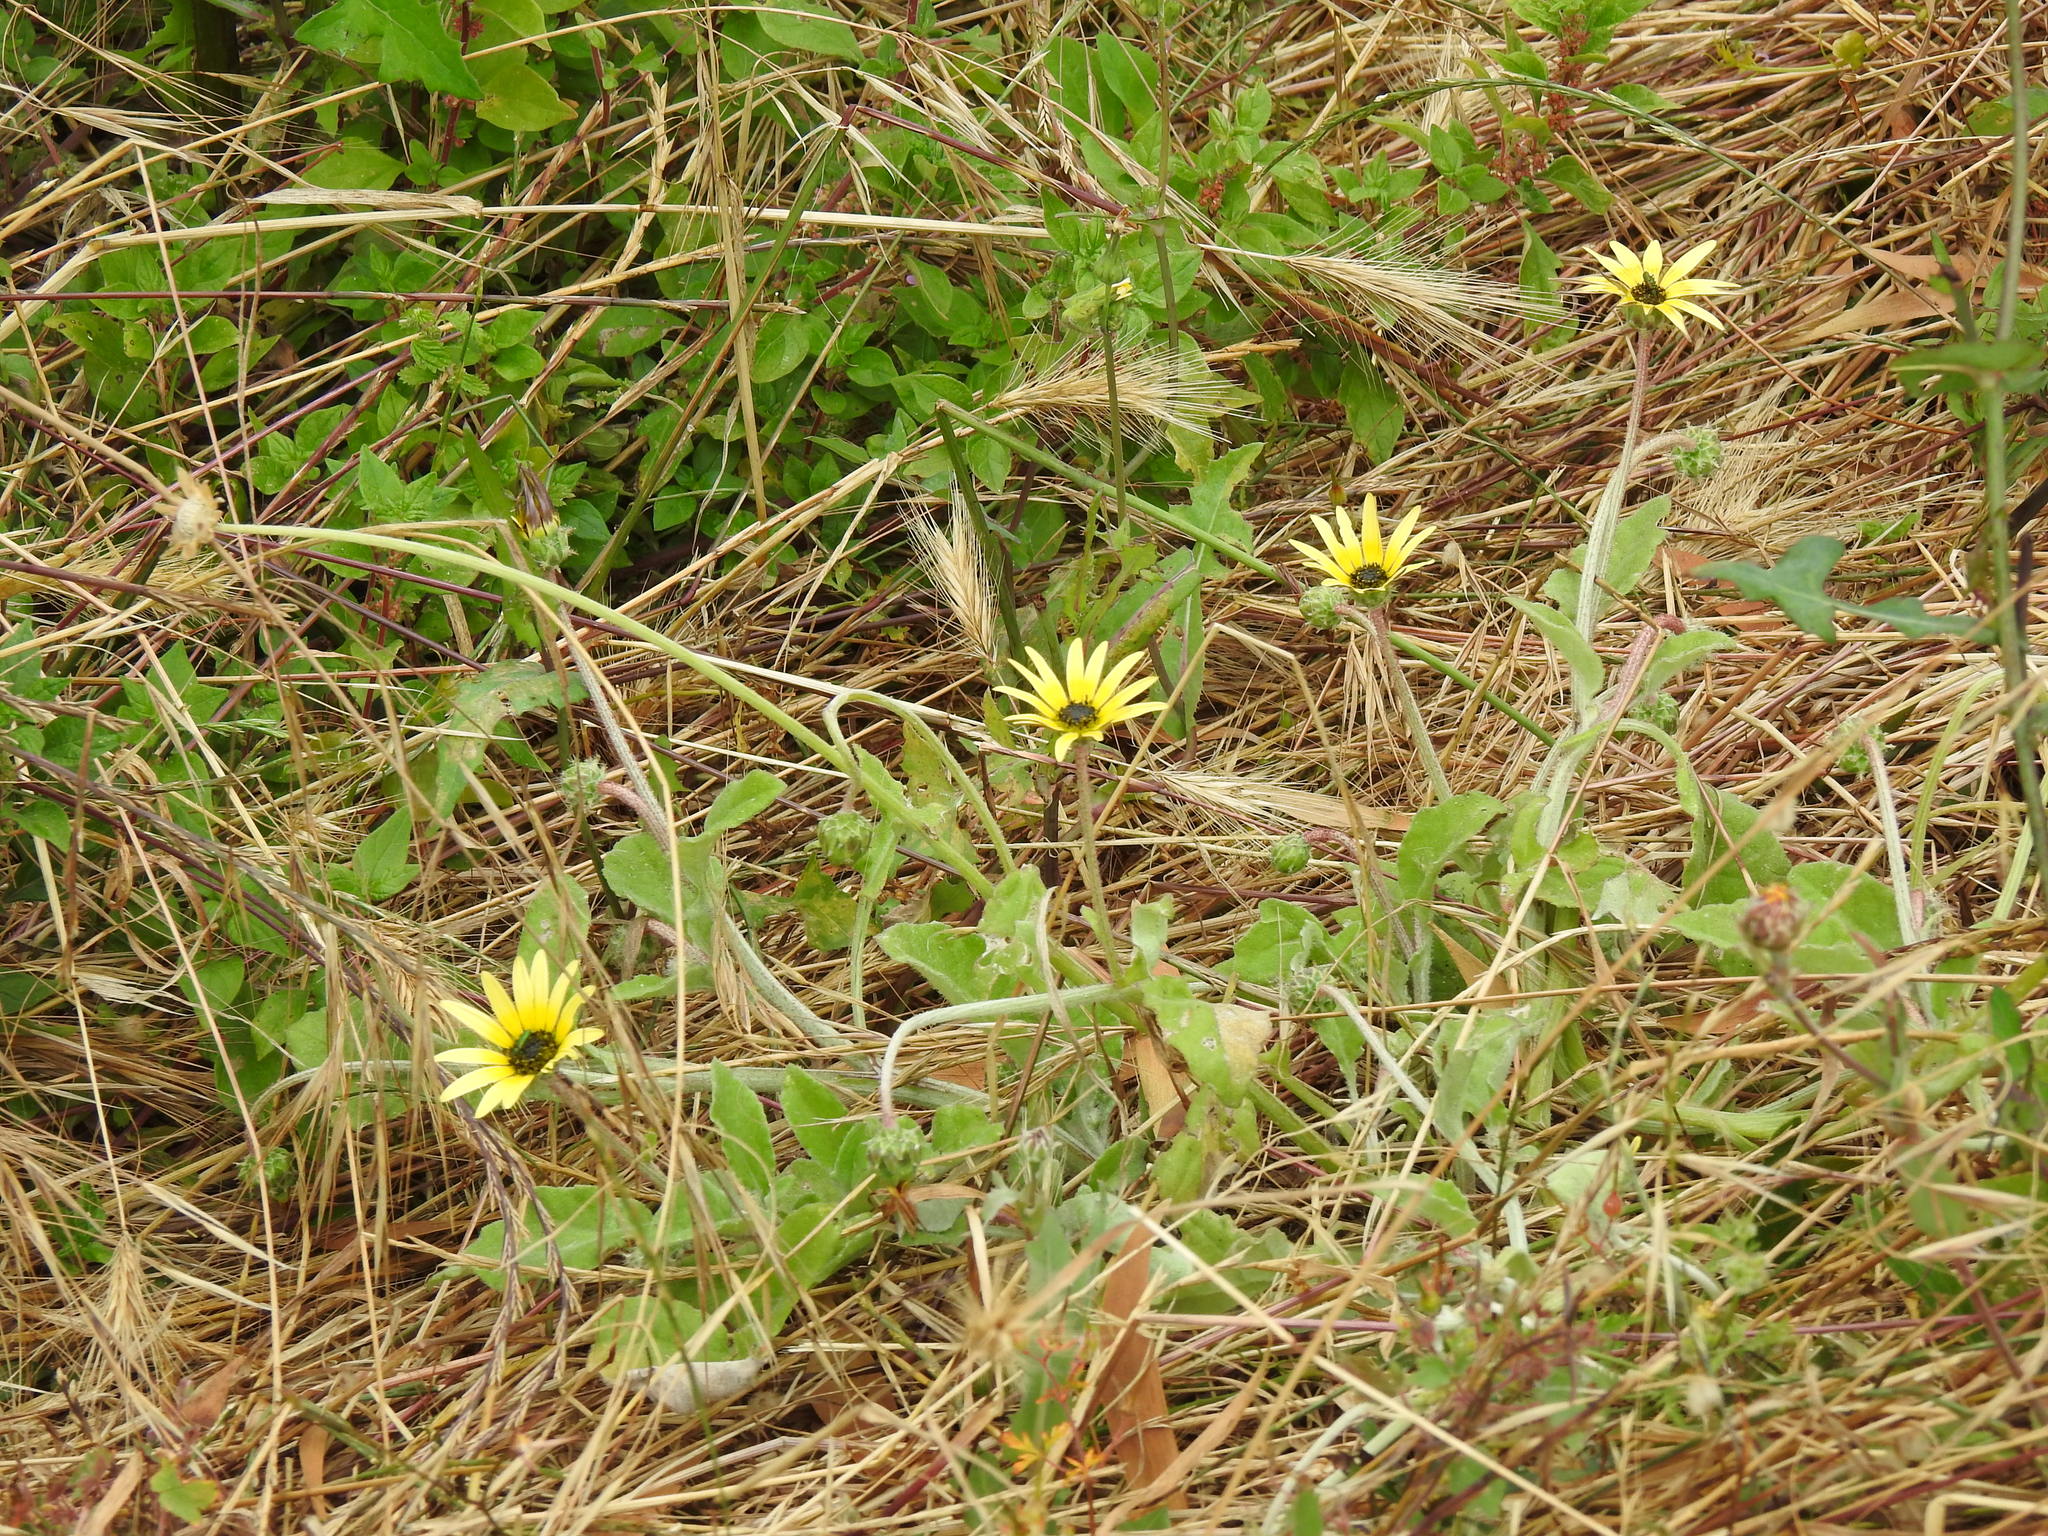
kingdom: Plantae
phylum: Tracheophyta
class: Magnoliopsida
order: Asterales
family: Asteraceae
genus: Arctotheca
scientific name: Arctotheca calendula
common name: Capeweed
